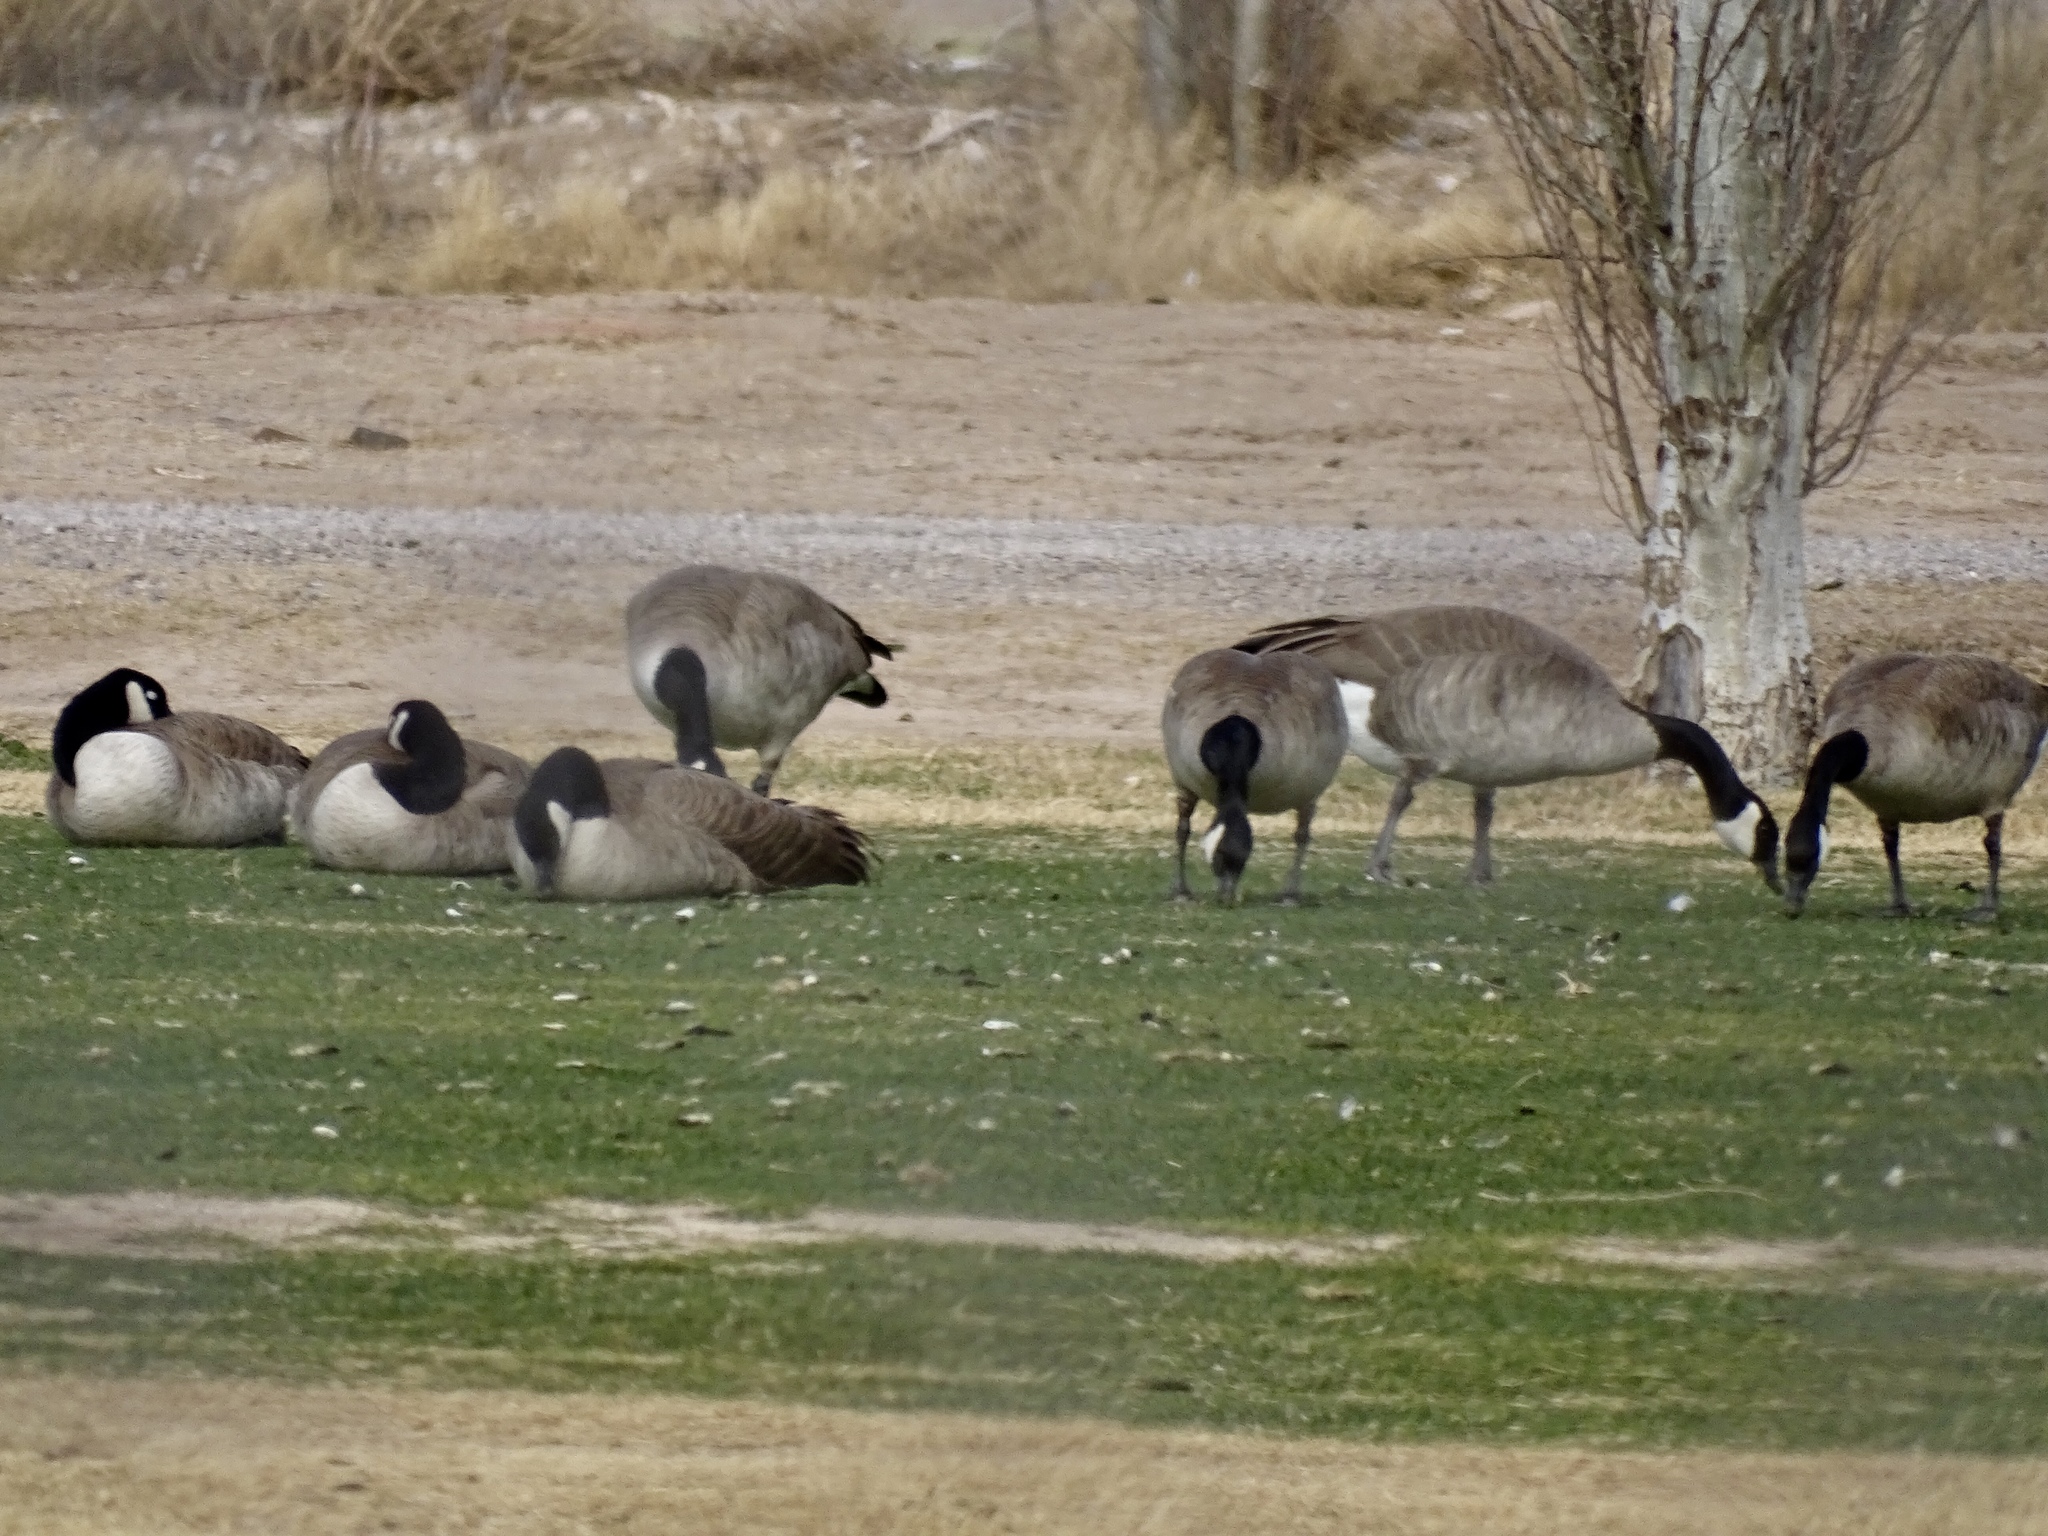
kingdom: Animalia
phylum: Chordata
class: Aves
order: Anseriformes
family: Anatidae
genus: Branta
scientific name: Branta canadensis
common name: Canada goose
